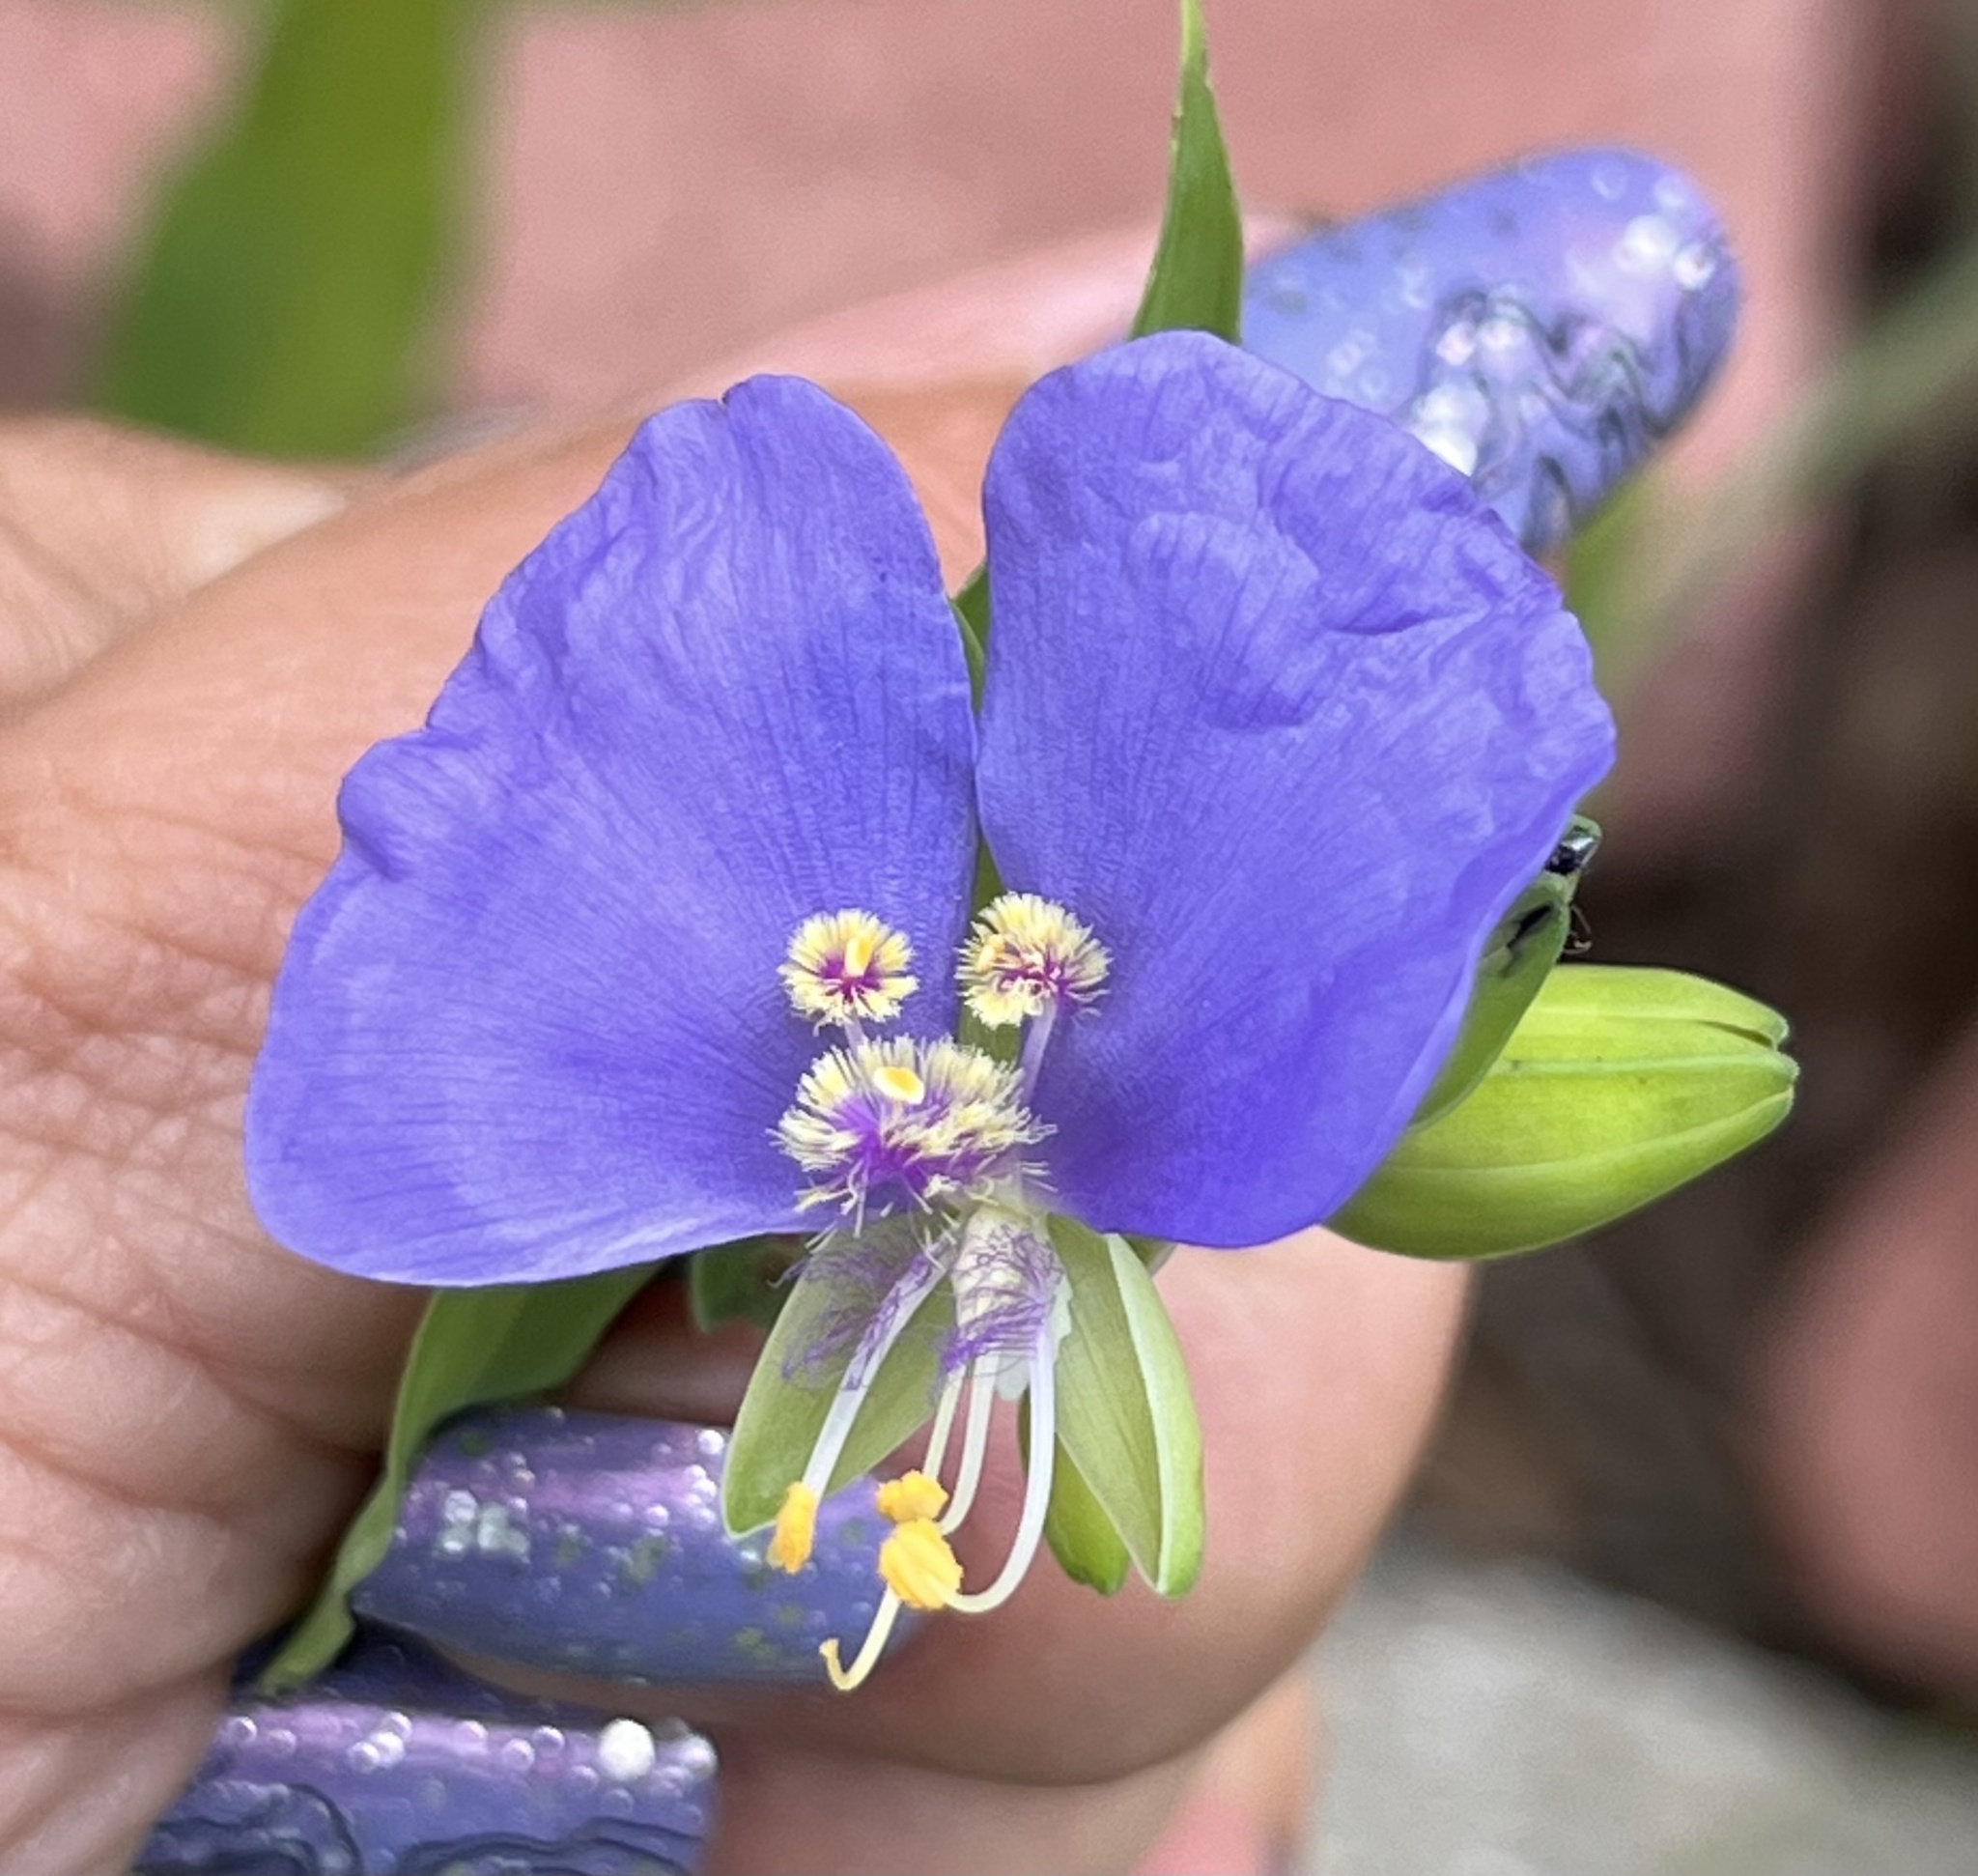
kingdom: Plantae
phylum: Tracheophyta
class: Liliopsida
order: Commelinales
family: Commelinaceae
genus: Tinantia
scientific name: Tinantia anomala
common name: False dayflower
